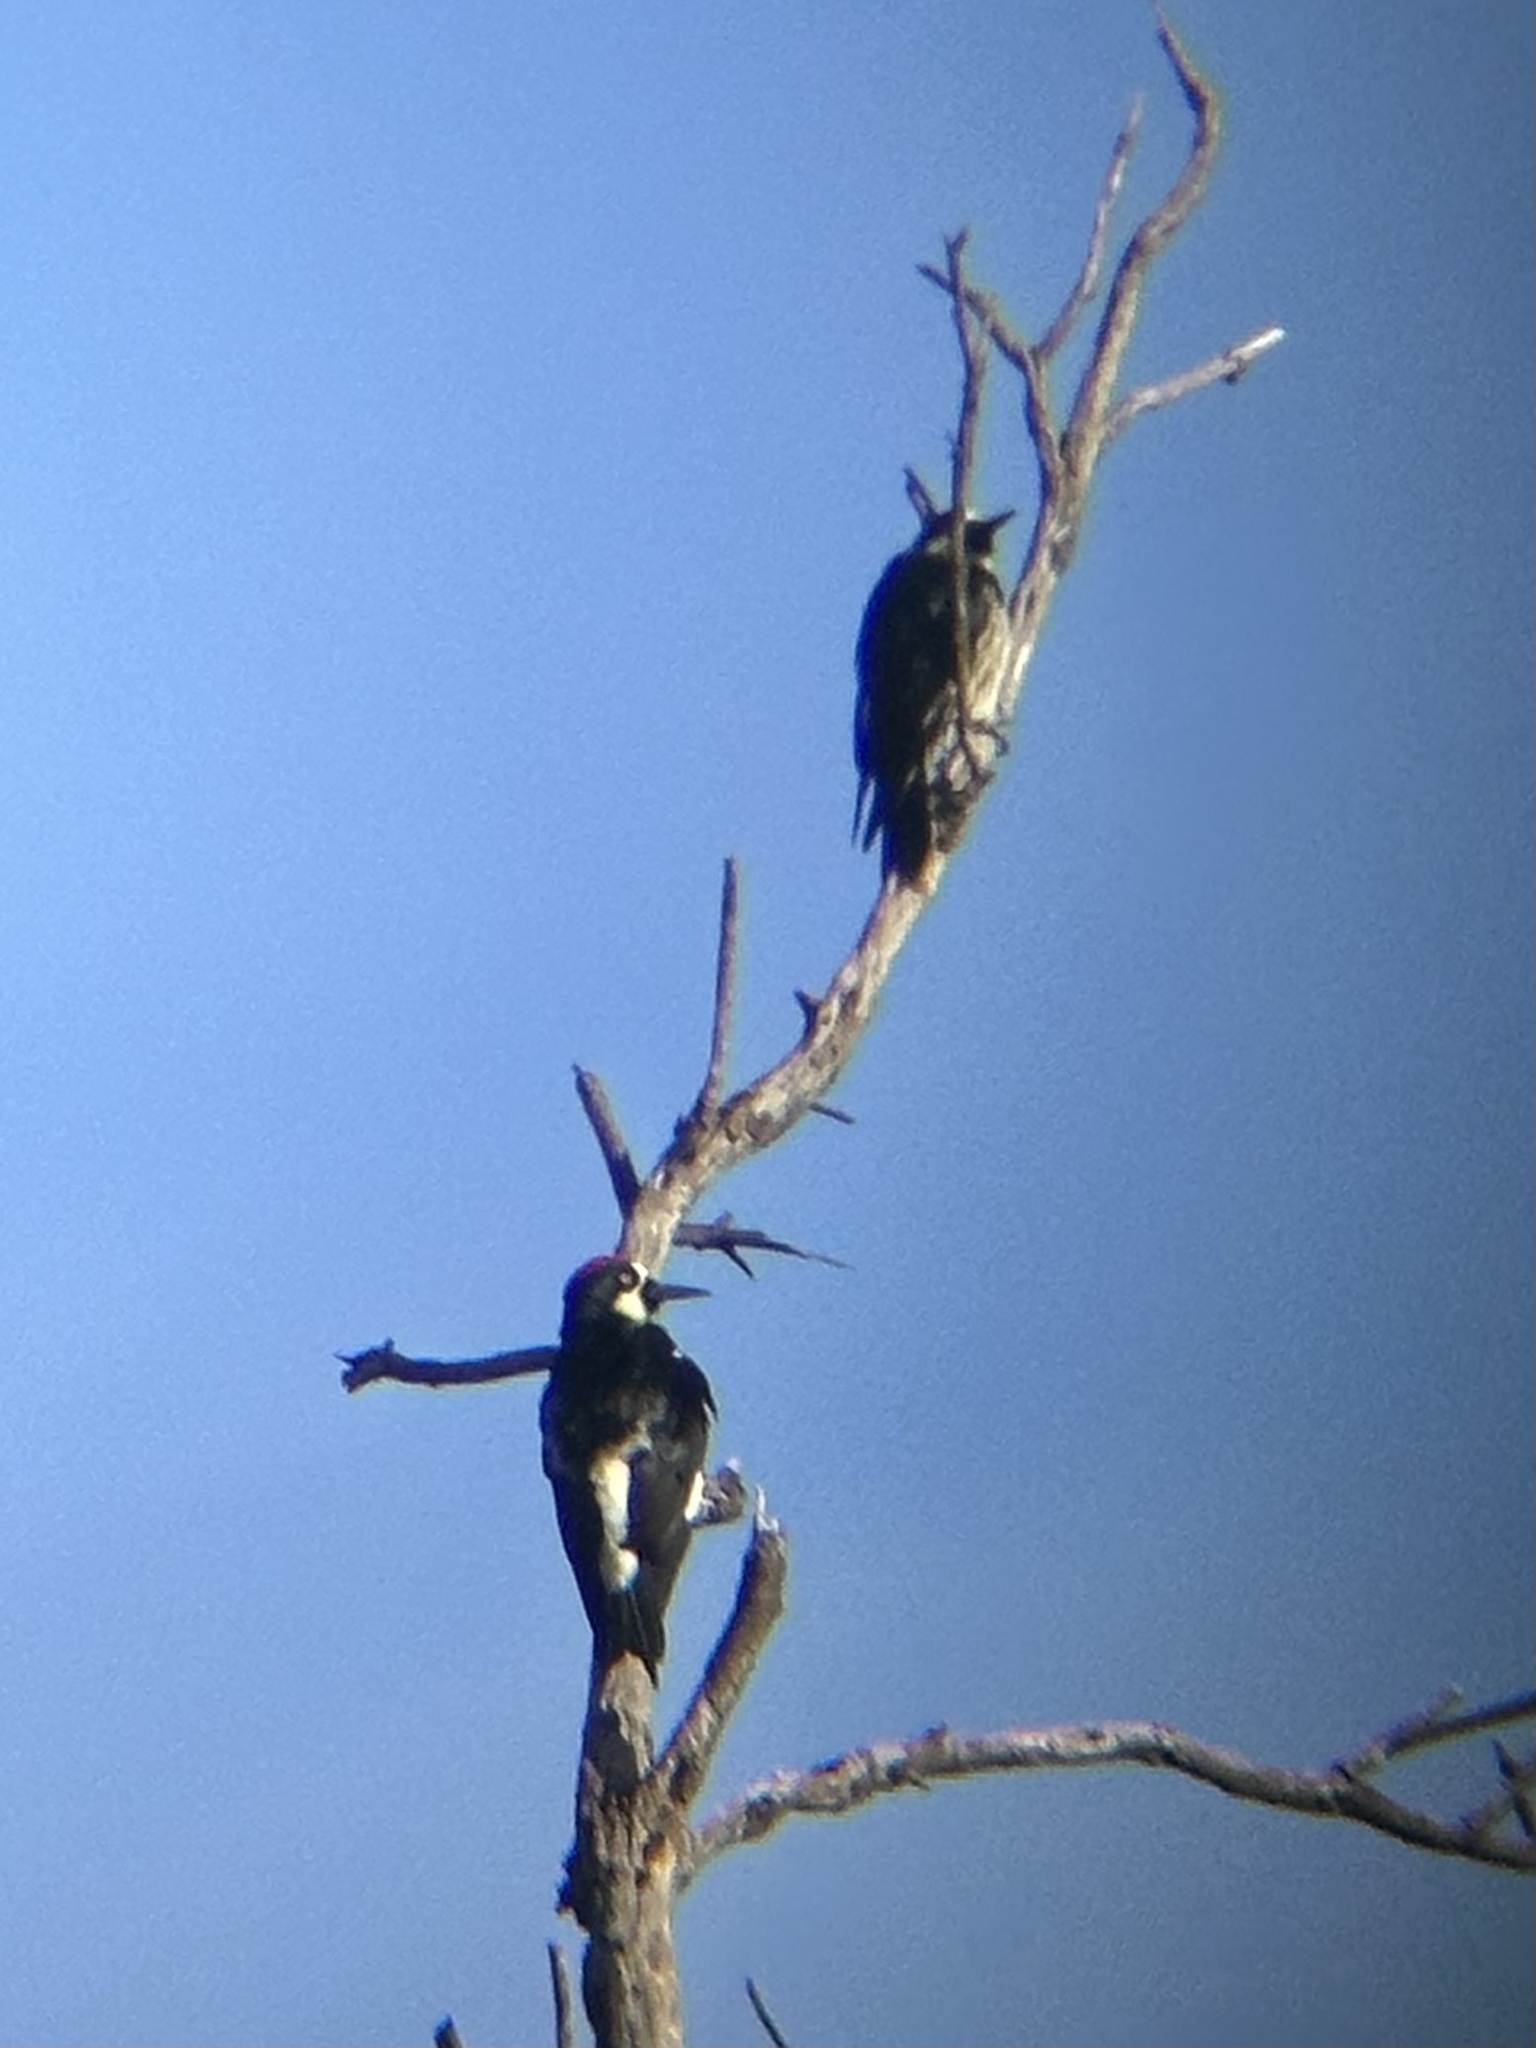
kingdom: Animalia
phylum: Chordata
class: Aves
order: Piciformes
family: Picidae
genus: Melanerpes
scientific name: Melanerpes formicivorus
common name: Acorn woodpecker
